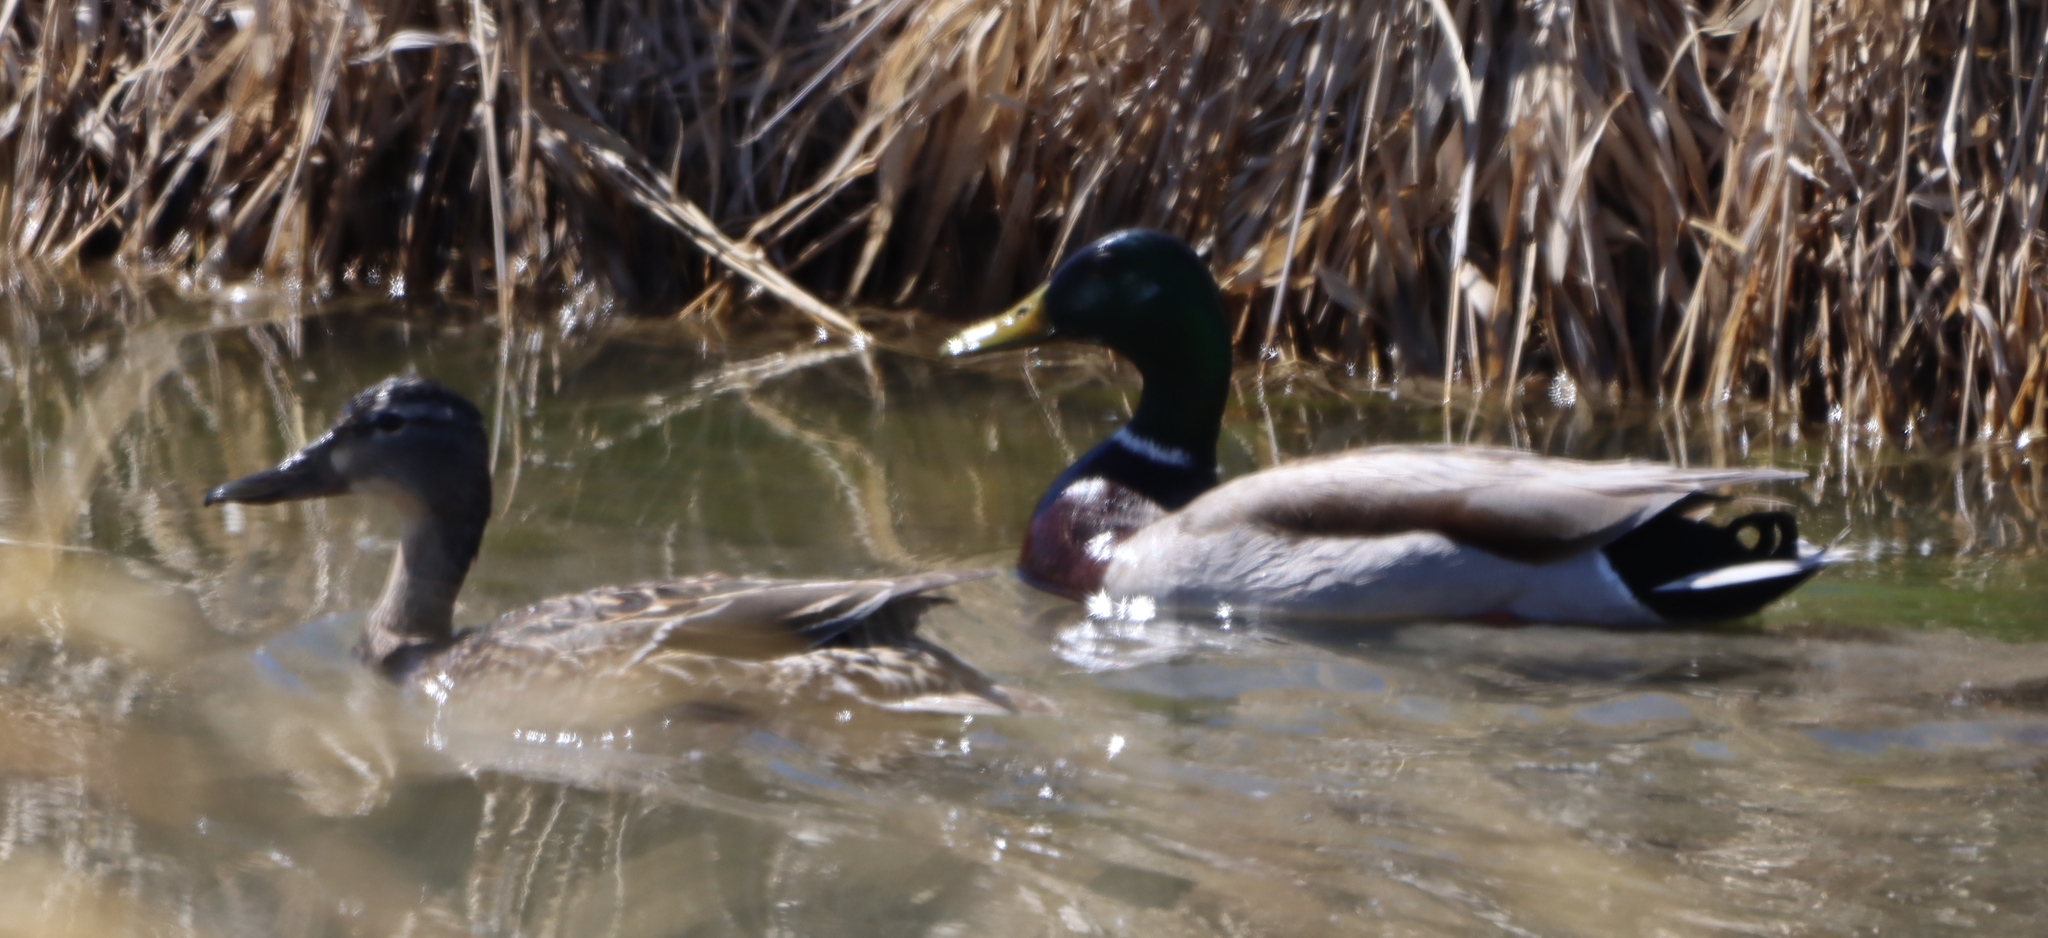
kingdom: Animalia
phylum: Chordata
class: Aves
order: Anseriformes
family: Anatidae
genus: Anas
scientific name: Anas platyrhynchos
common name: Mallard
